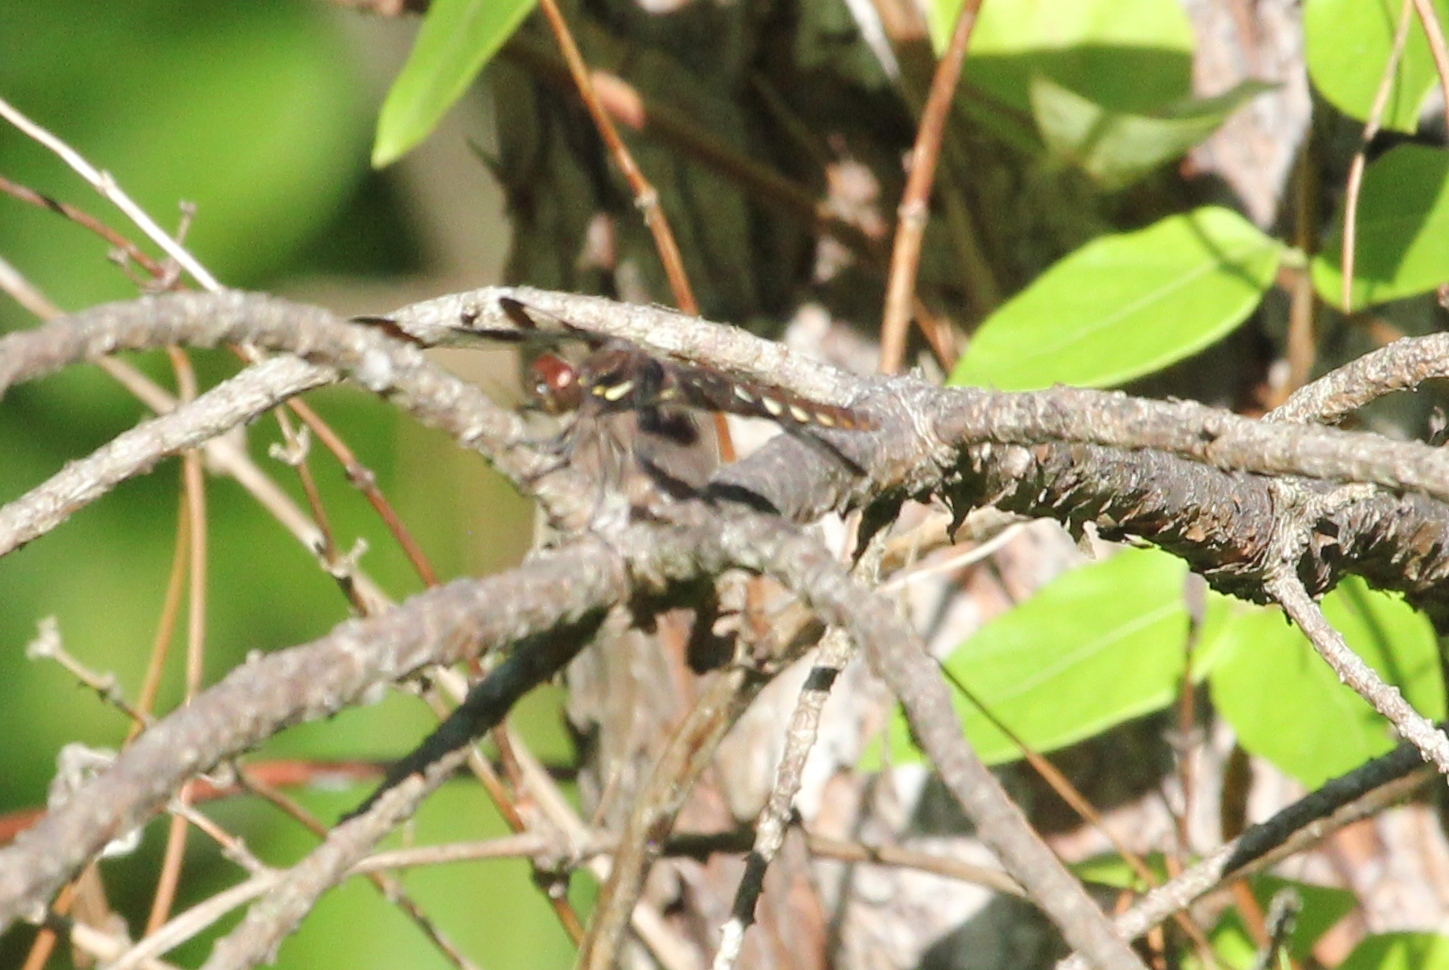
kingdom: Animalia
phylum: Arthropoda
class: Insecta
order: Odonata
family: Libellulidae
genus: Plathemis
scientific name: Plathemis lydia
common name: Common whitetail
